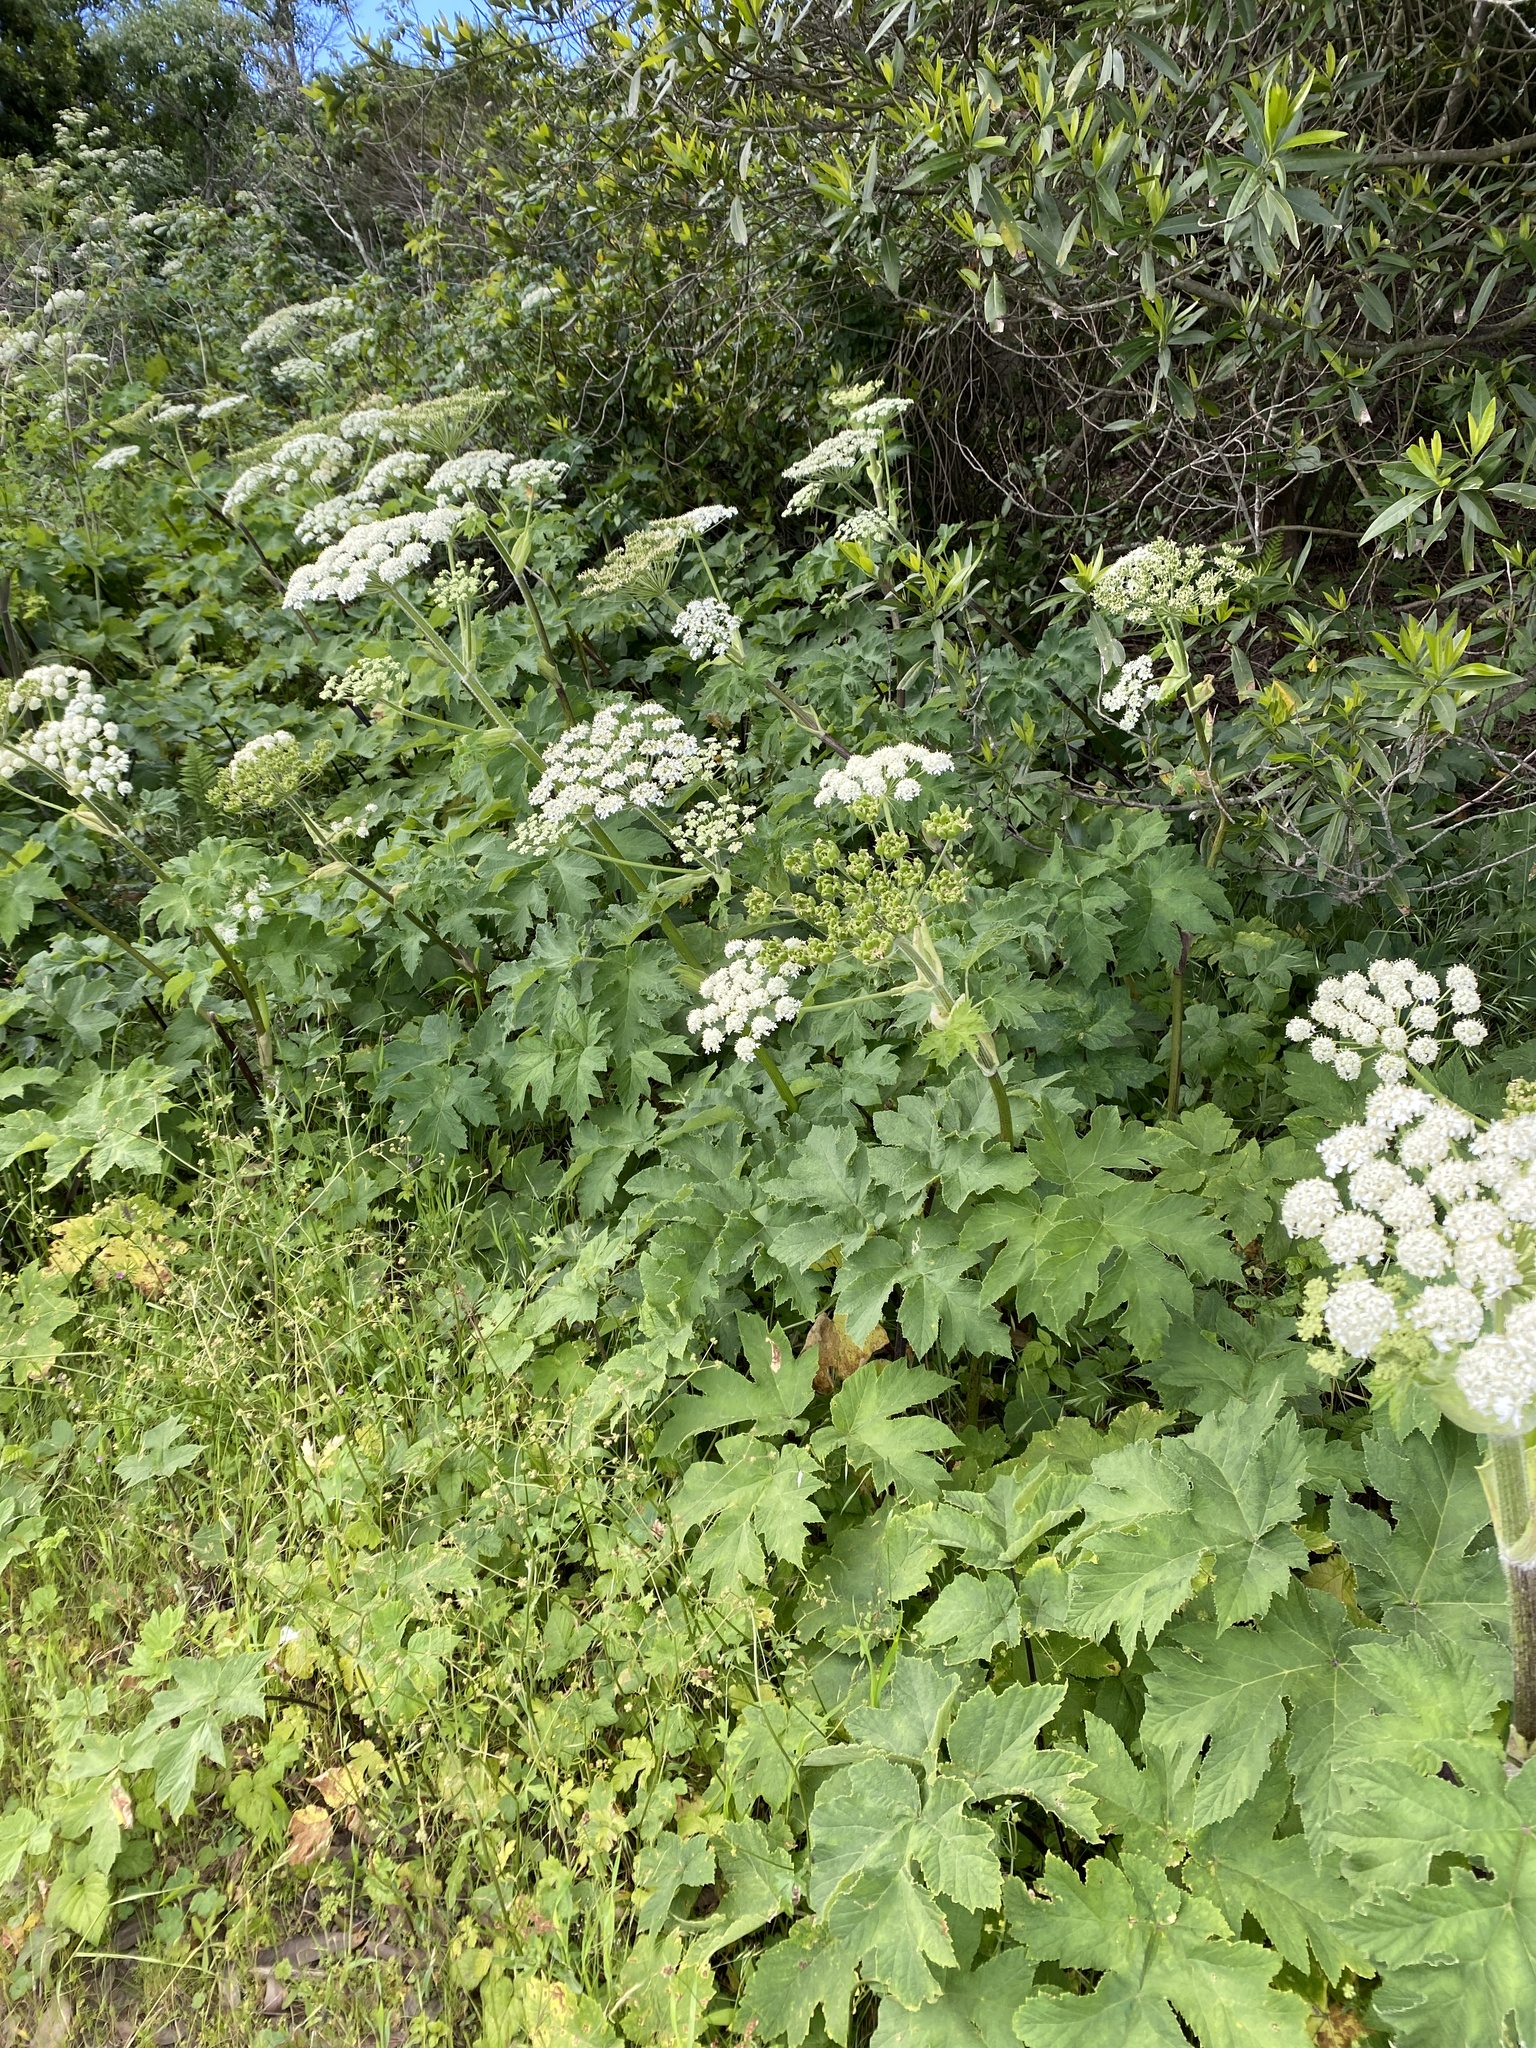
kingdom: Plantae
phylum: Tracheophyta
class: Magnoliopsida
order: Apiales
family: Apiaceae
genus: Heracleum
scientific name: Heracleum maximum
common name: American cow parsnip
